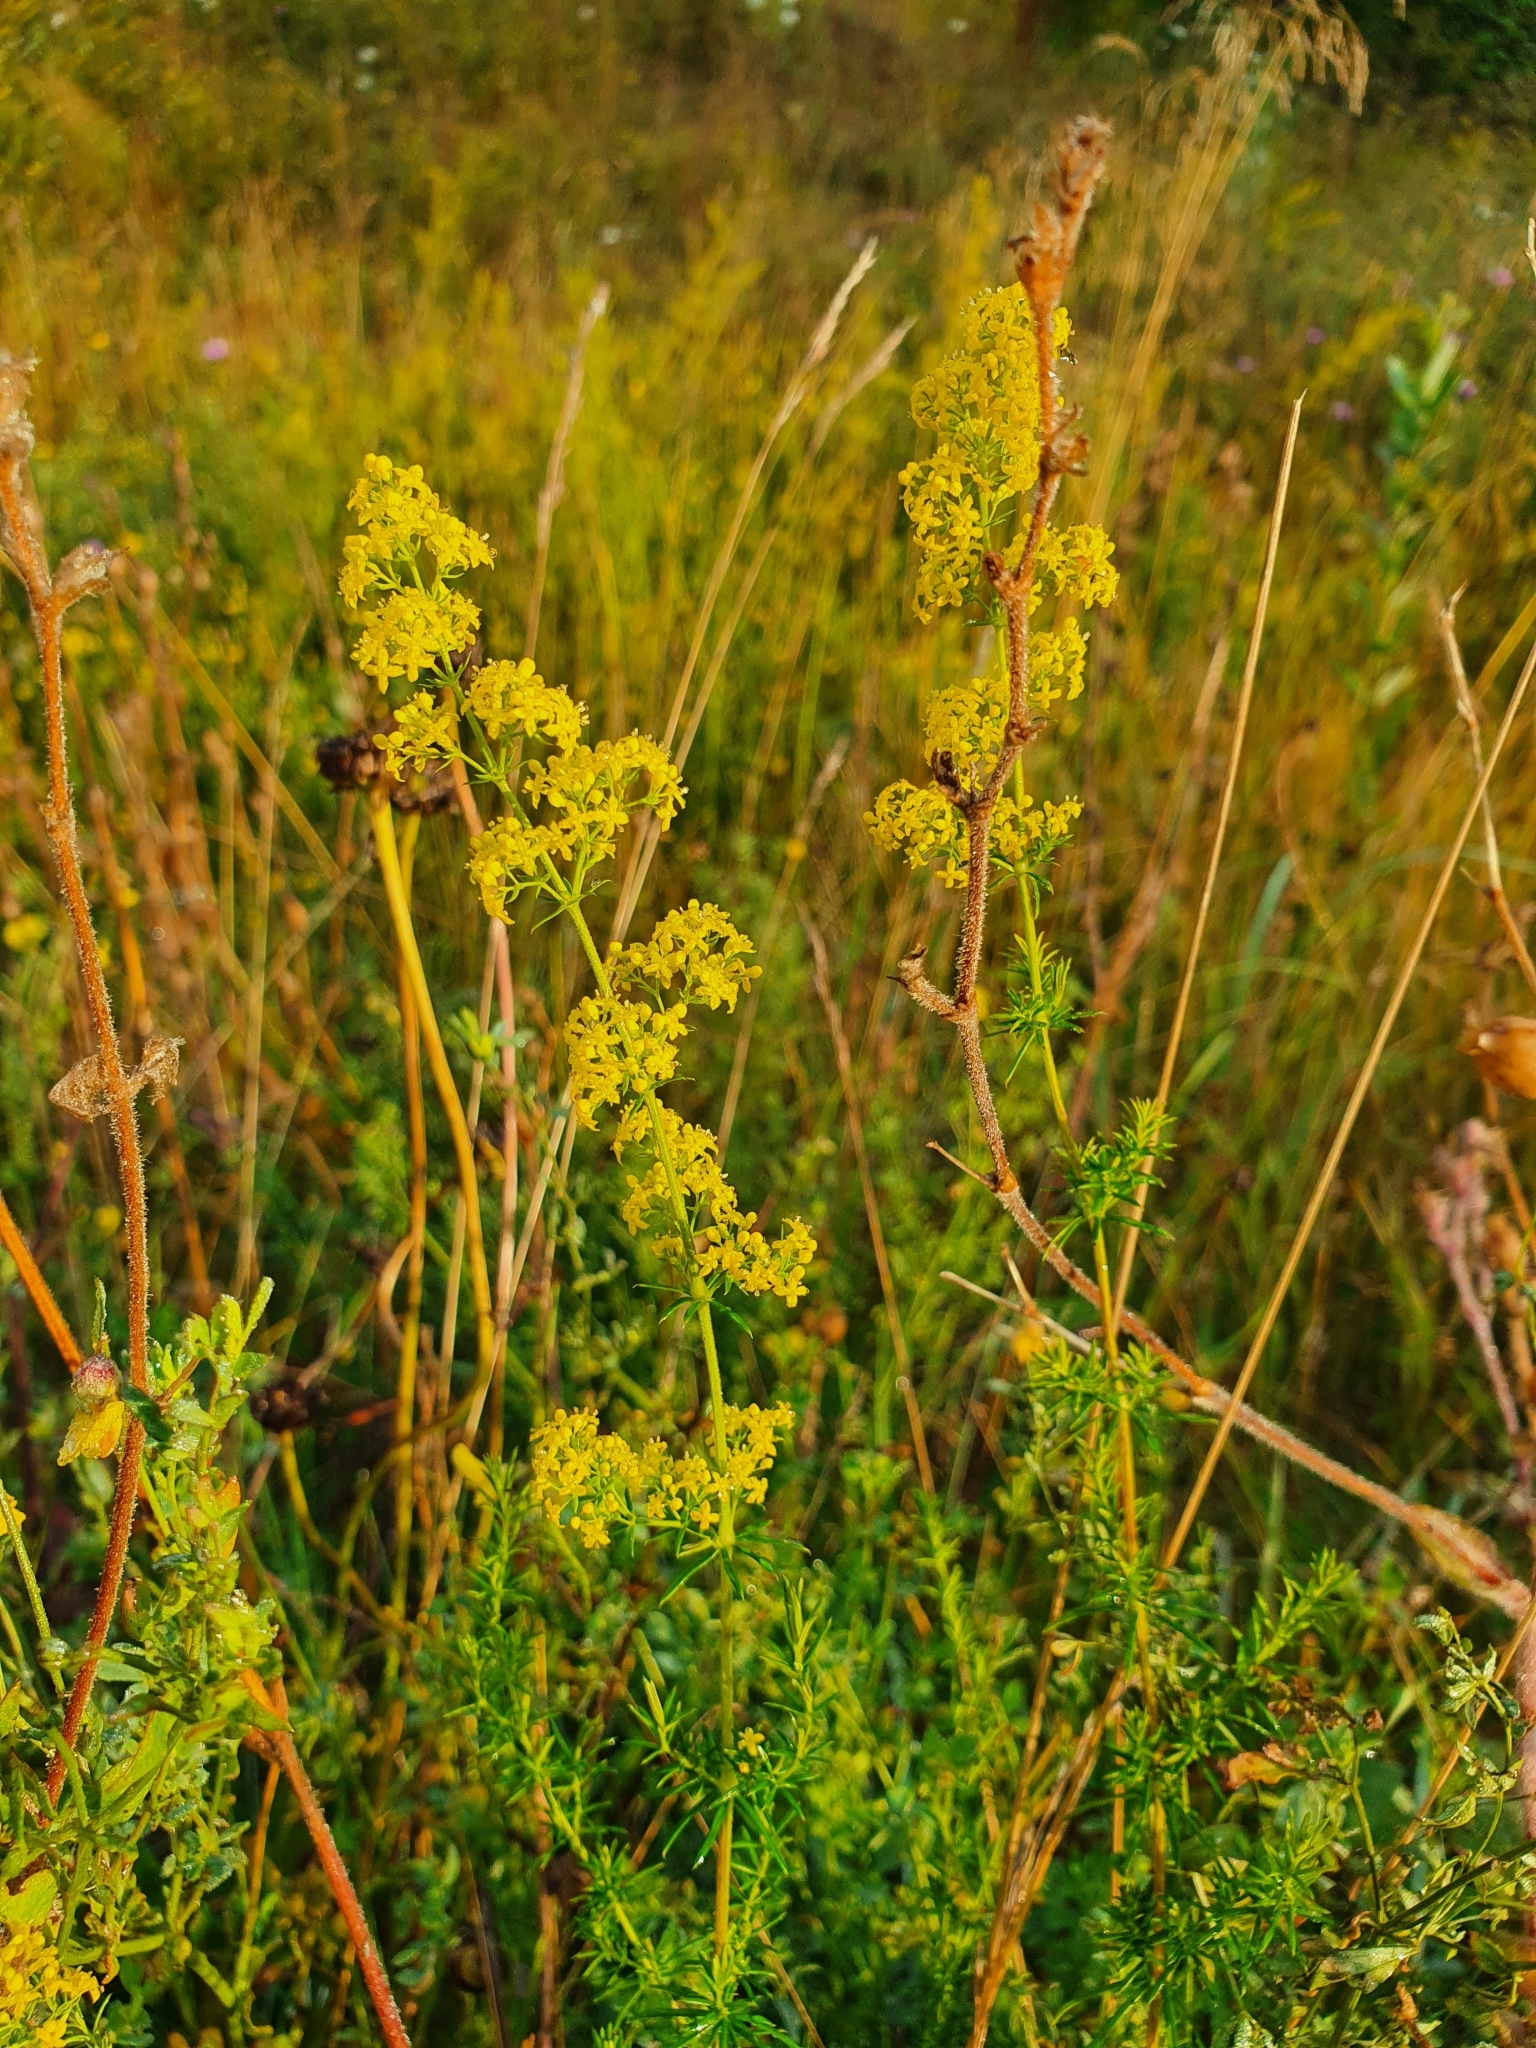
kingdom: Plantae
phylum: Tracheophyta
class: Magnoliopsida
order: Gentianales
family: Rubiaceae
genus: Galium
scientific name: Galium verum
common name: Lady's bedstraw
